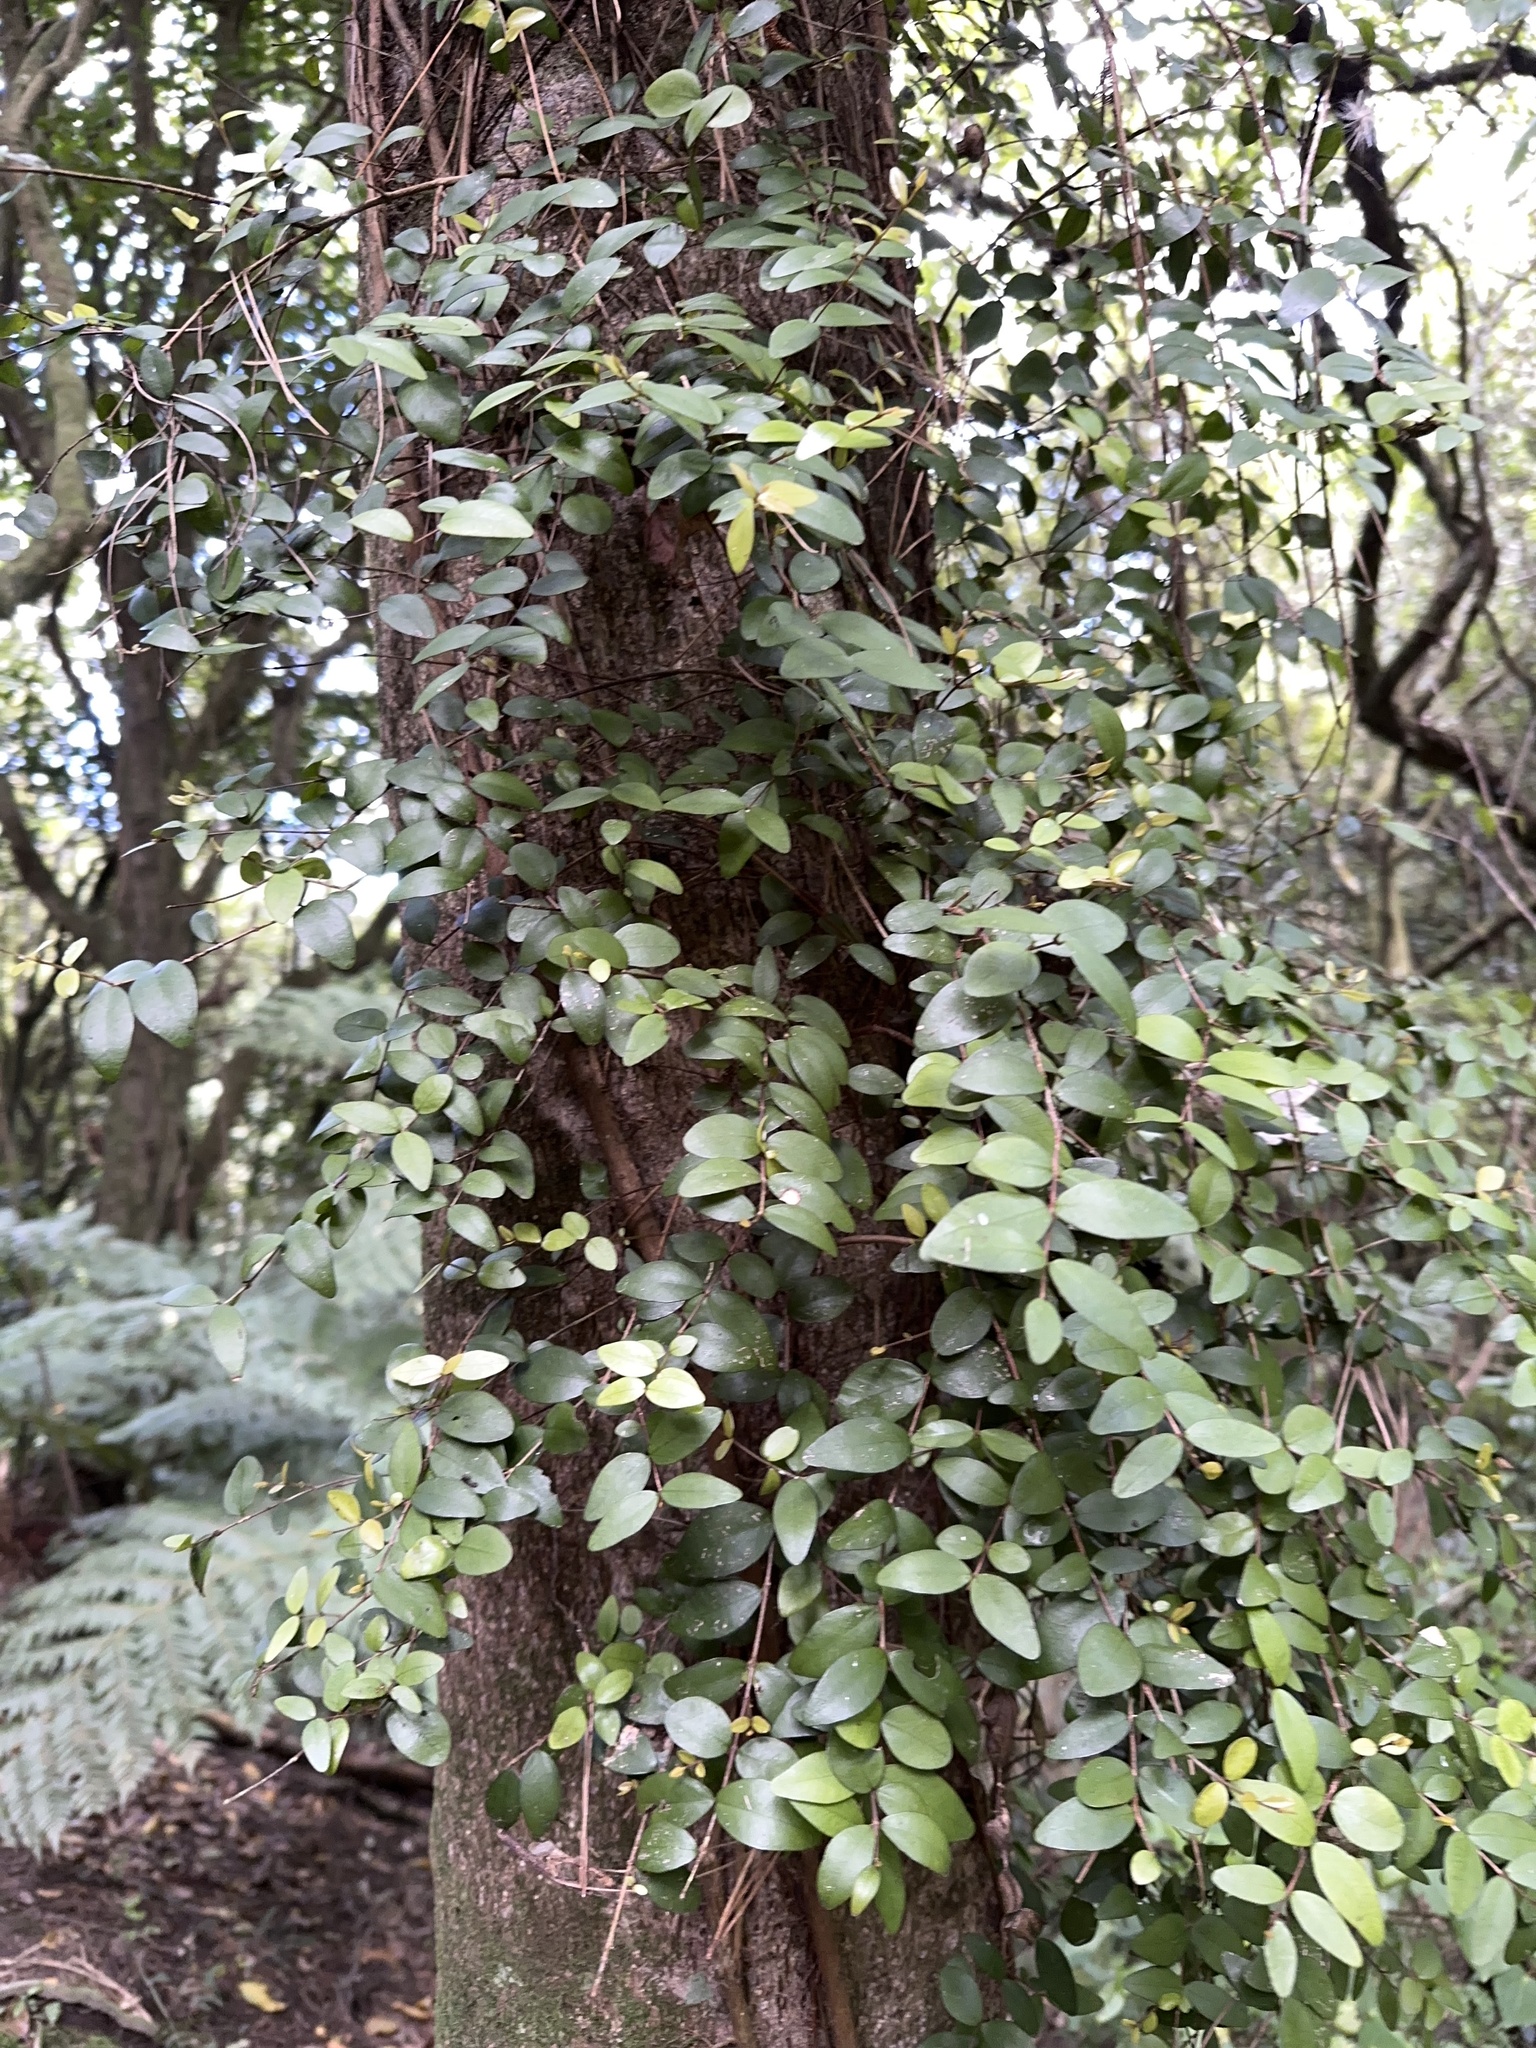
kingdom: Plantae
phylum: Tracheophyta
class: Magnoliopsida
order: Myrtales
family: Myrtaceae
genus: Metrosideros
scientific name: Metrosideros fulgens
